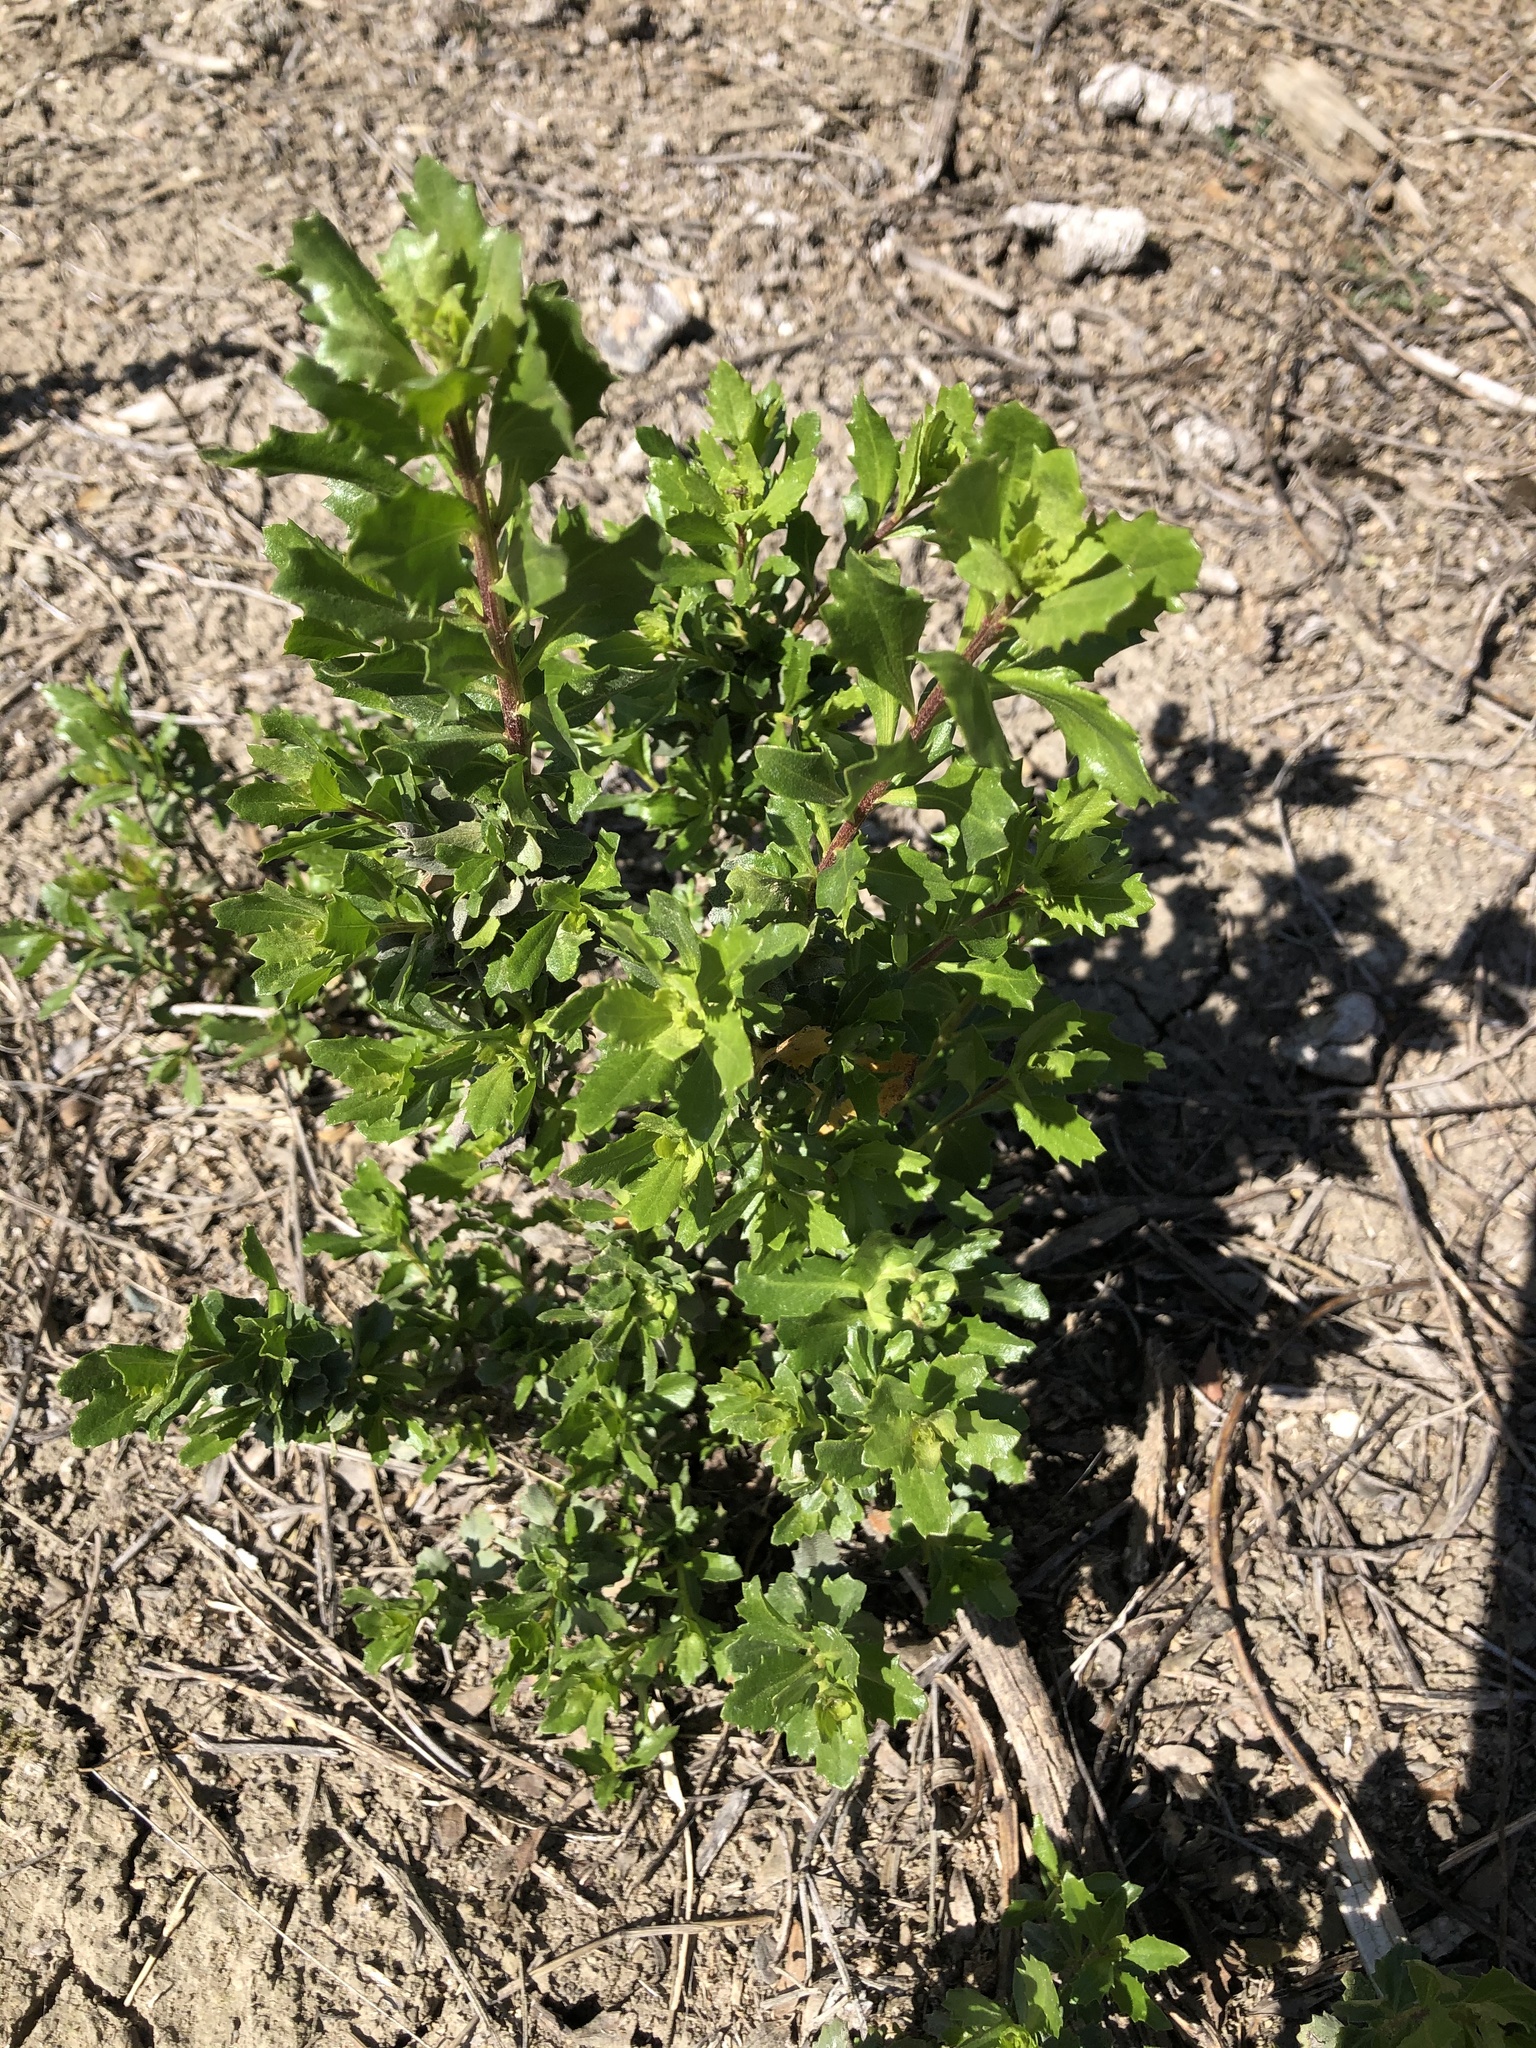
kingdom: Plantae
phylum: Tracheophyta
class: Magnoliopsida
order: Asterales
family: Asteraceae
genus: Baccharis
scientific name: Baccharis pilularis
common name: Coyotebrush
